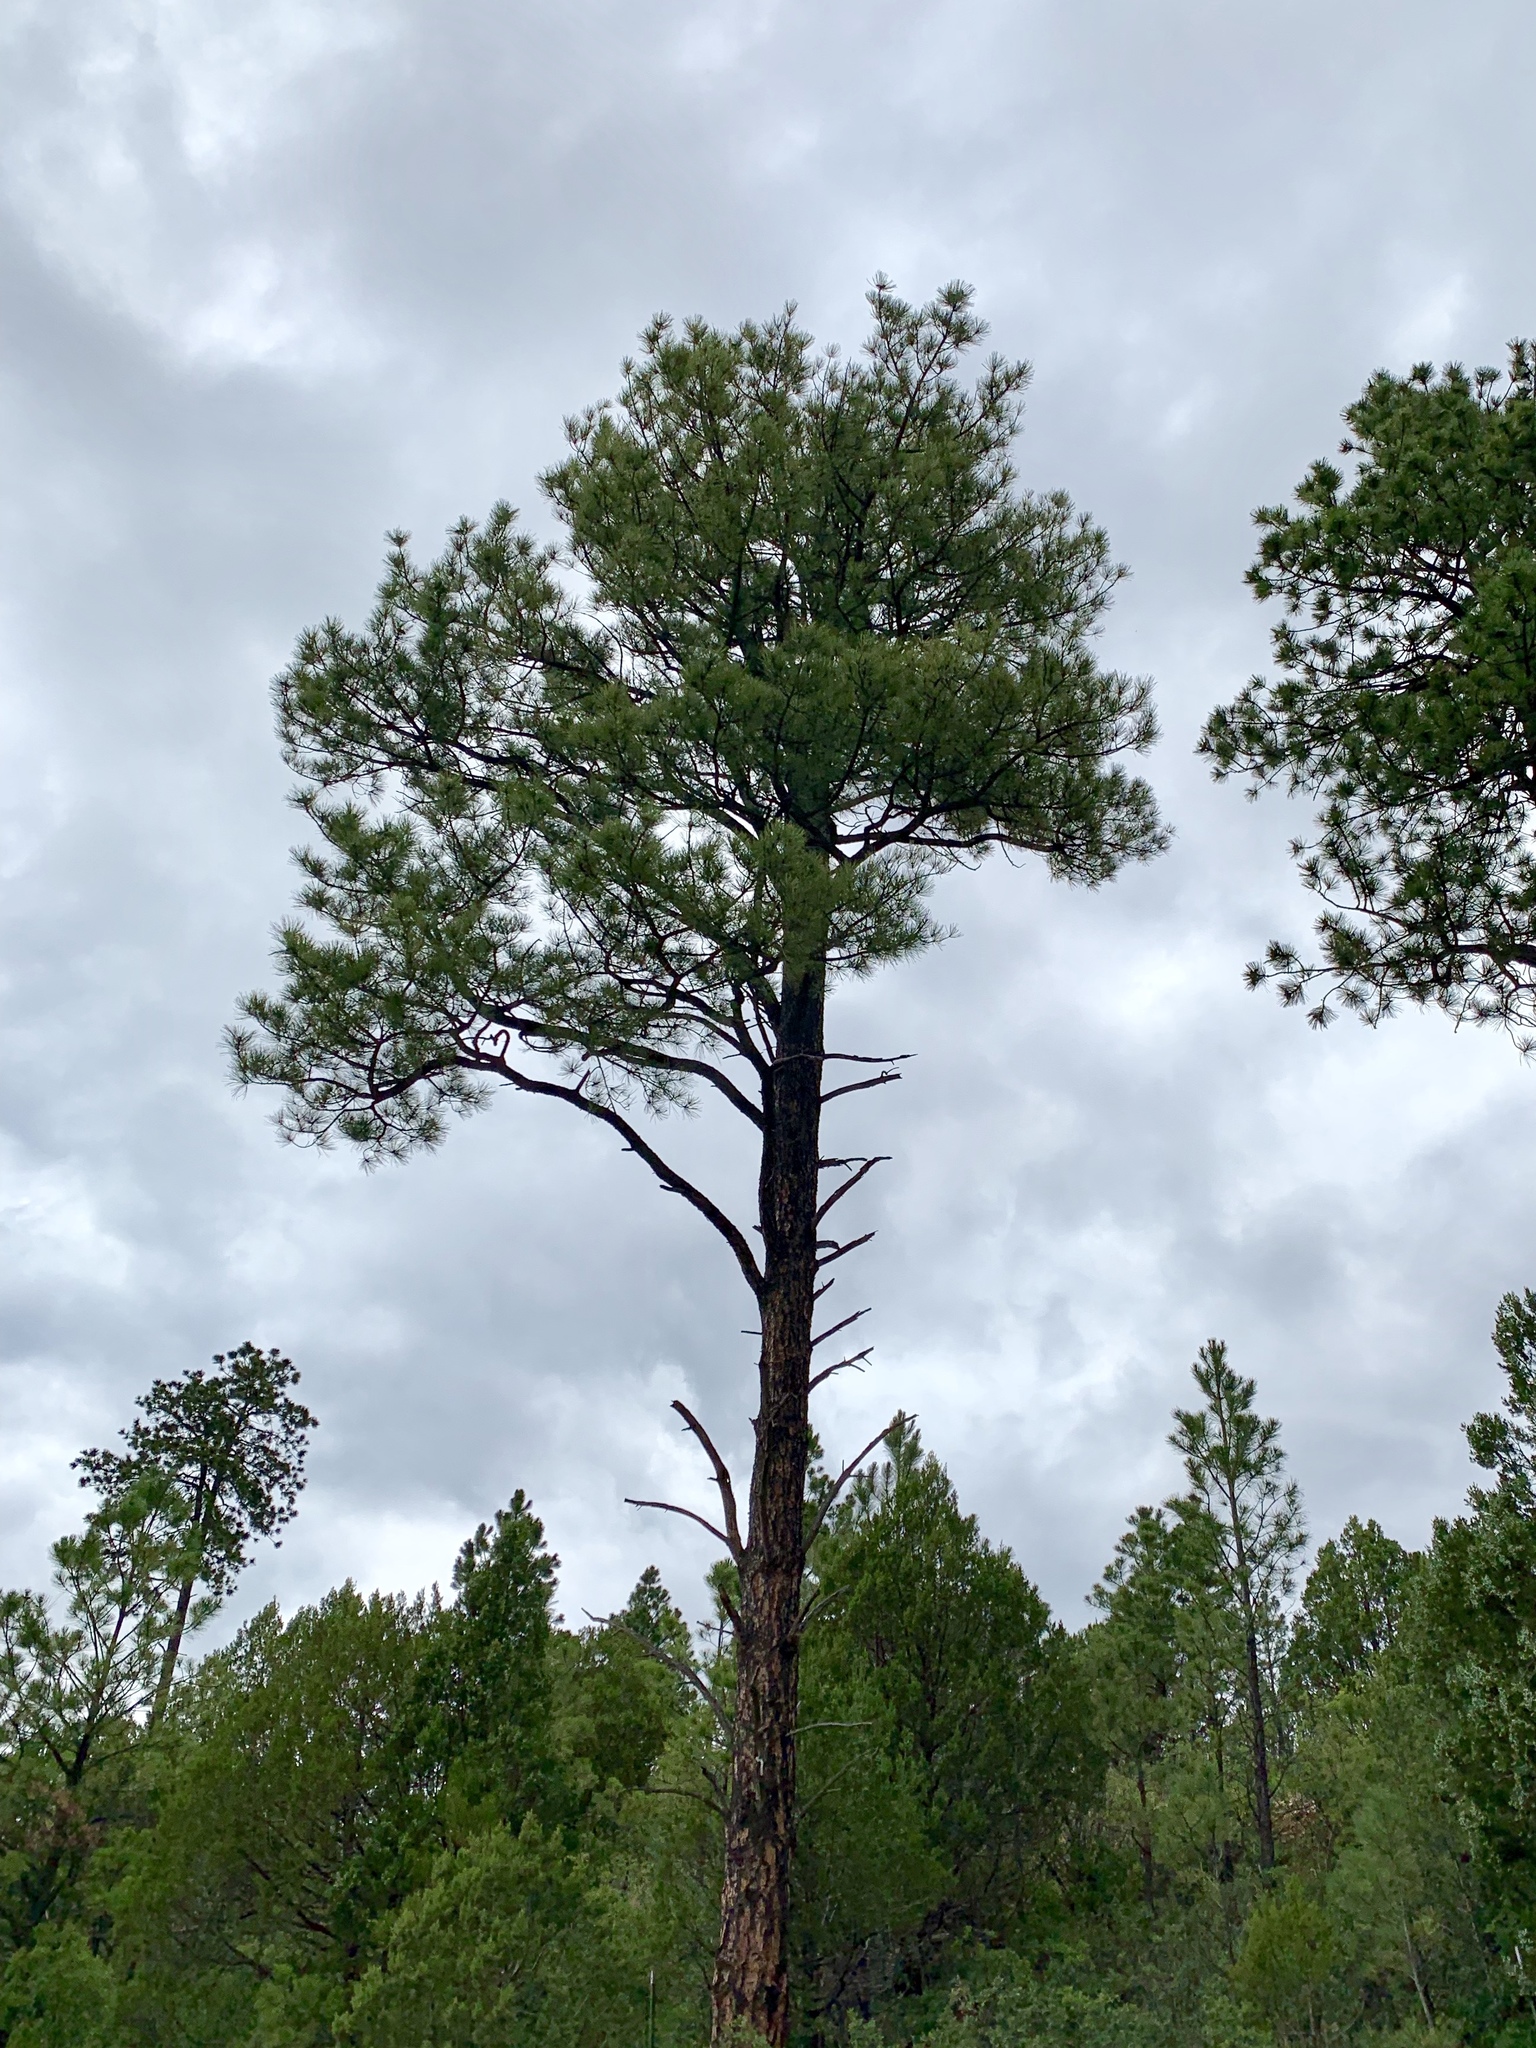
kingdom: Plantae
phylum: Tracheophyta
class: Pinopsida
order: Pinales
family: Pinaceae
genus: Pinus
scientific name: Pinus ponderosa
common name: Western yellow-pine
